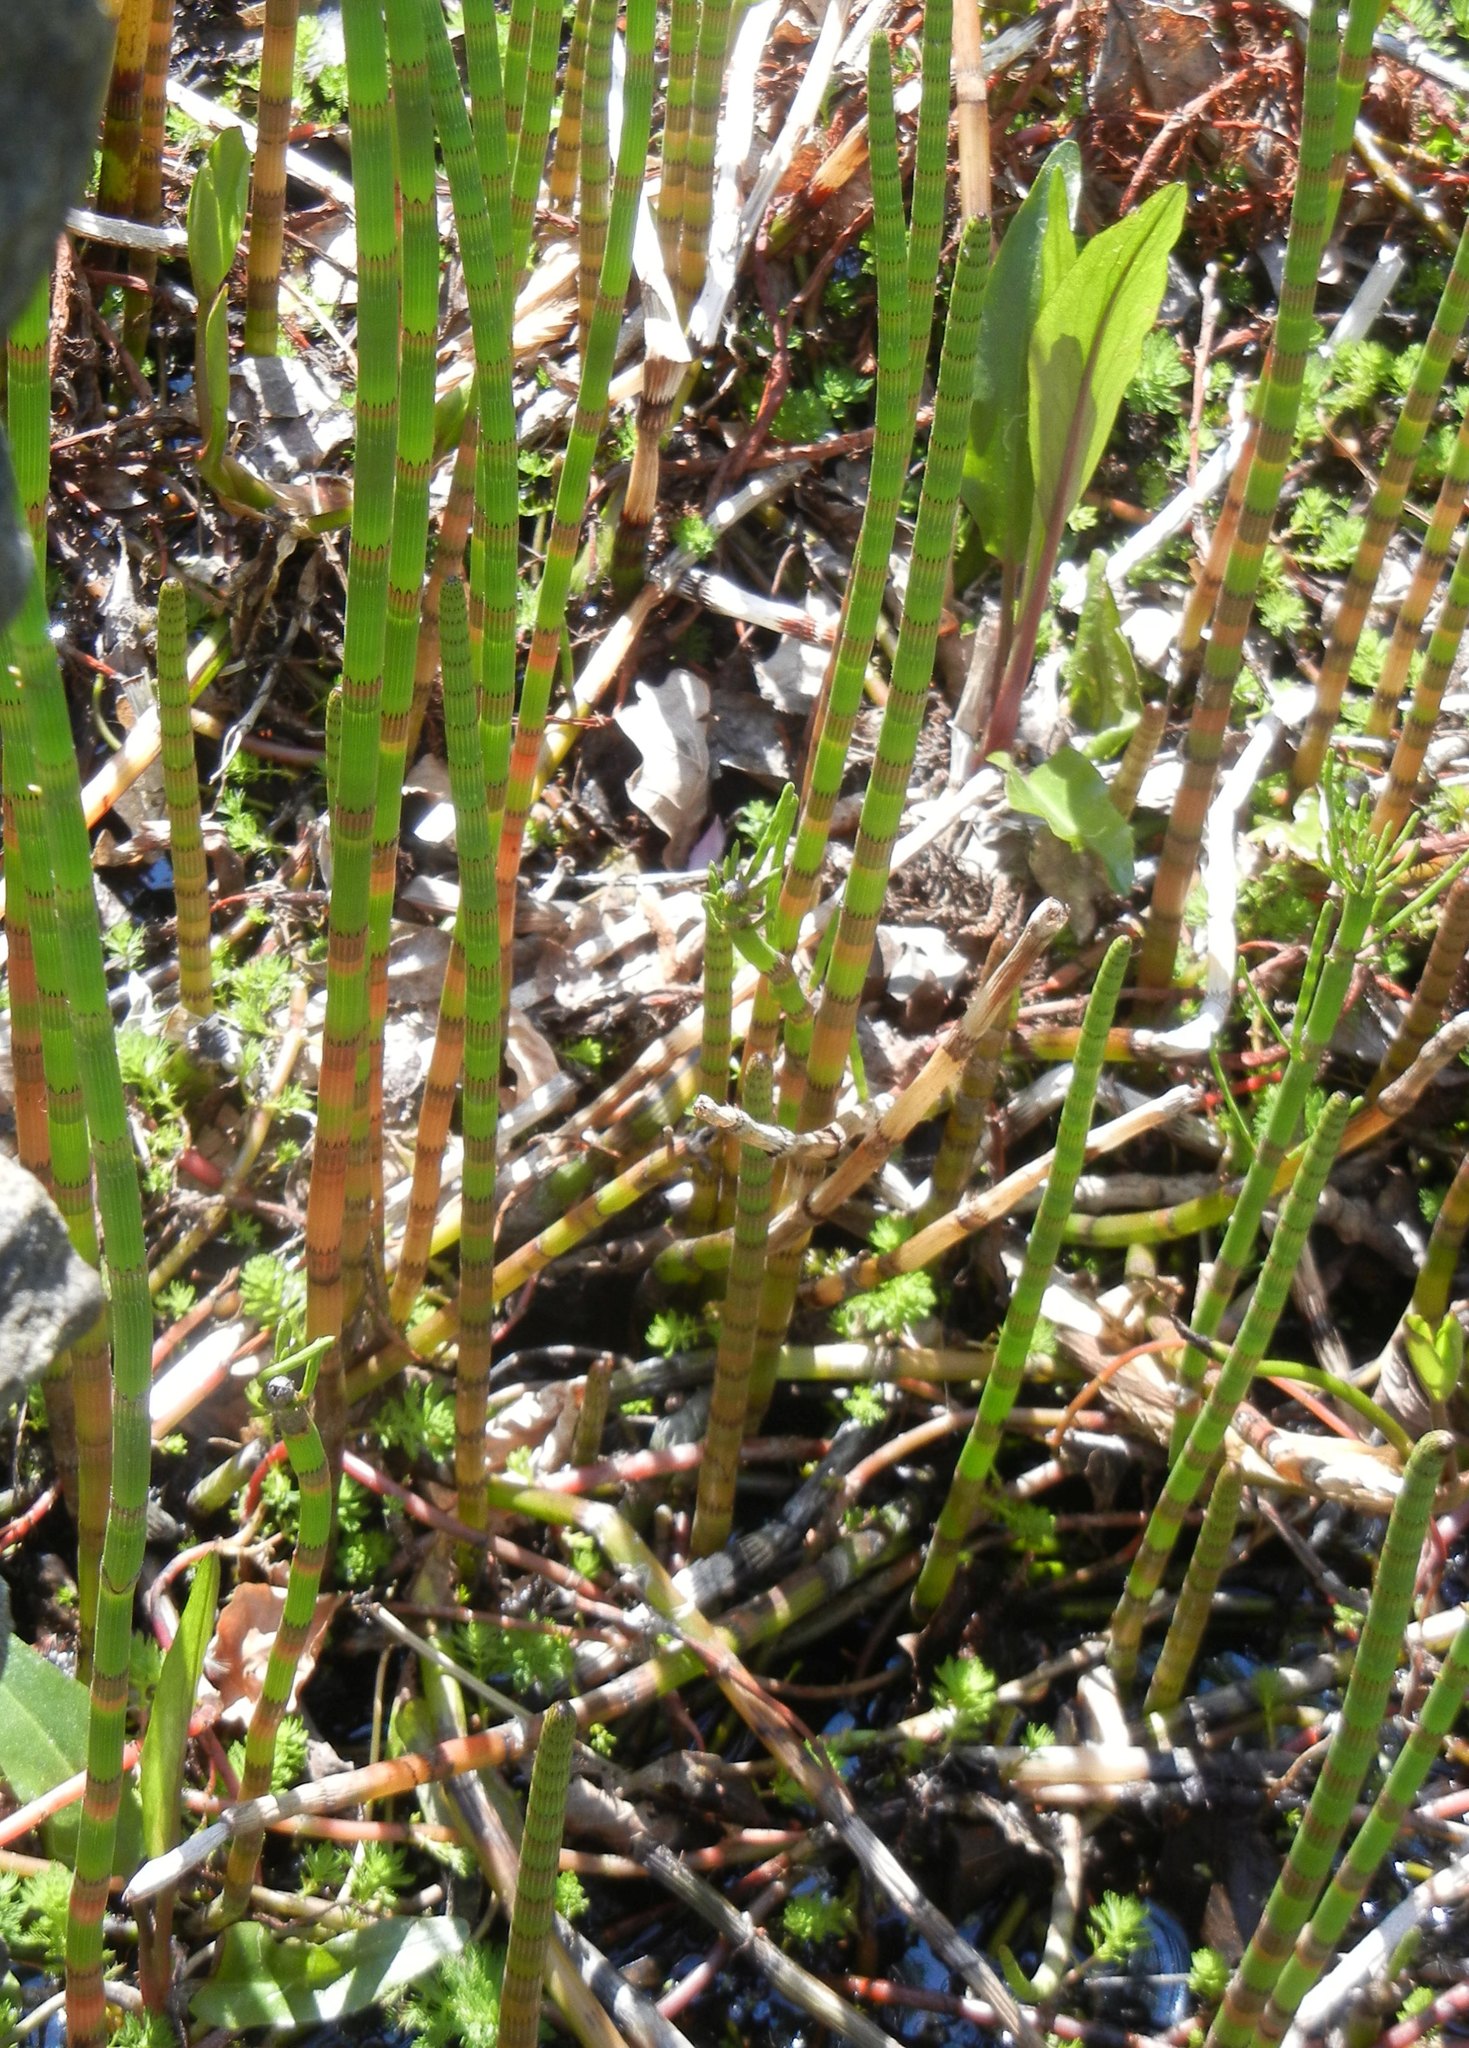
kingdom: Plantae
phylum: Tracheophyta
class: Polypodiopsida
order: Equisetales
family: Equisetaceae
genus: Equisetum
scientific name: Equisetum fluviatile
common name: Water horsetail
